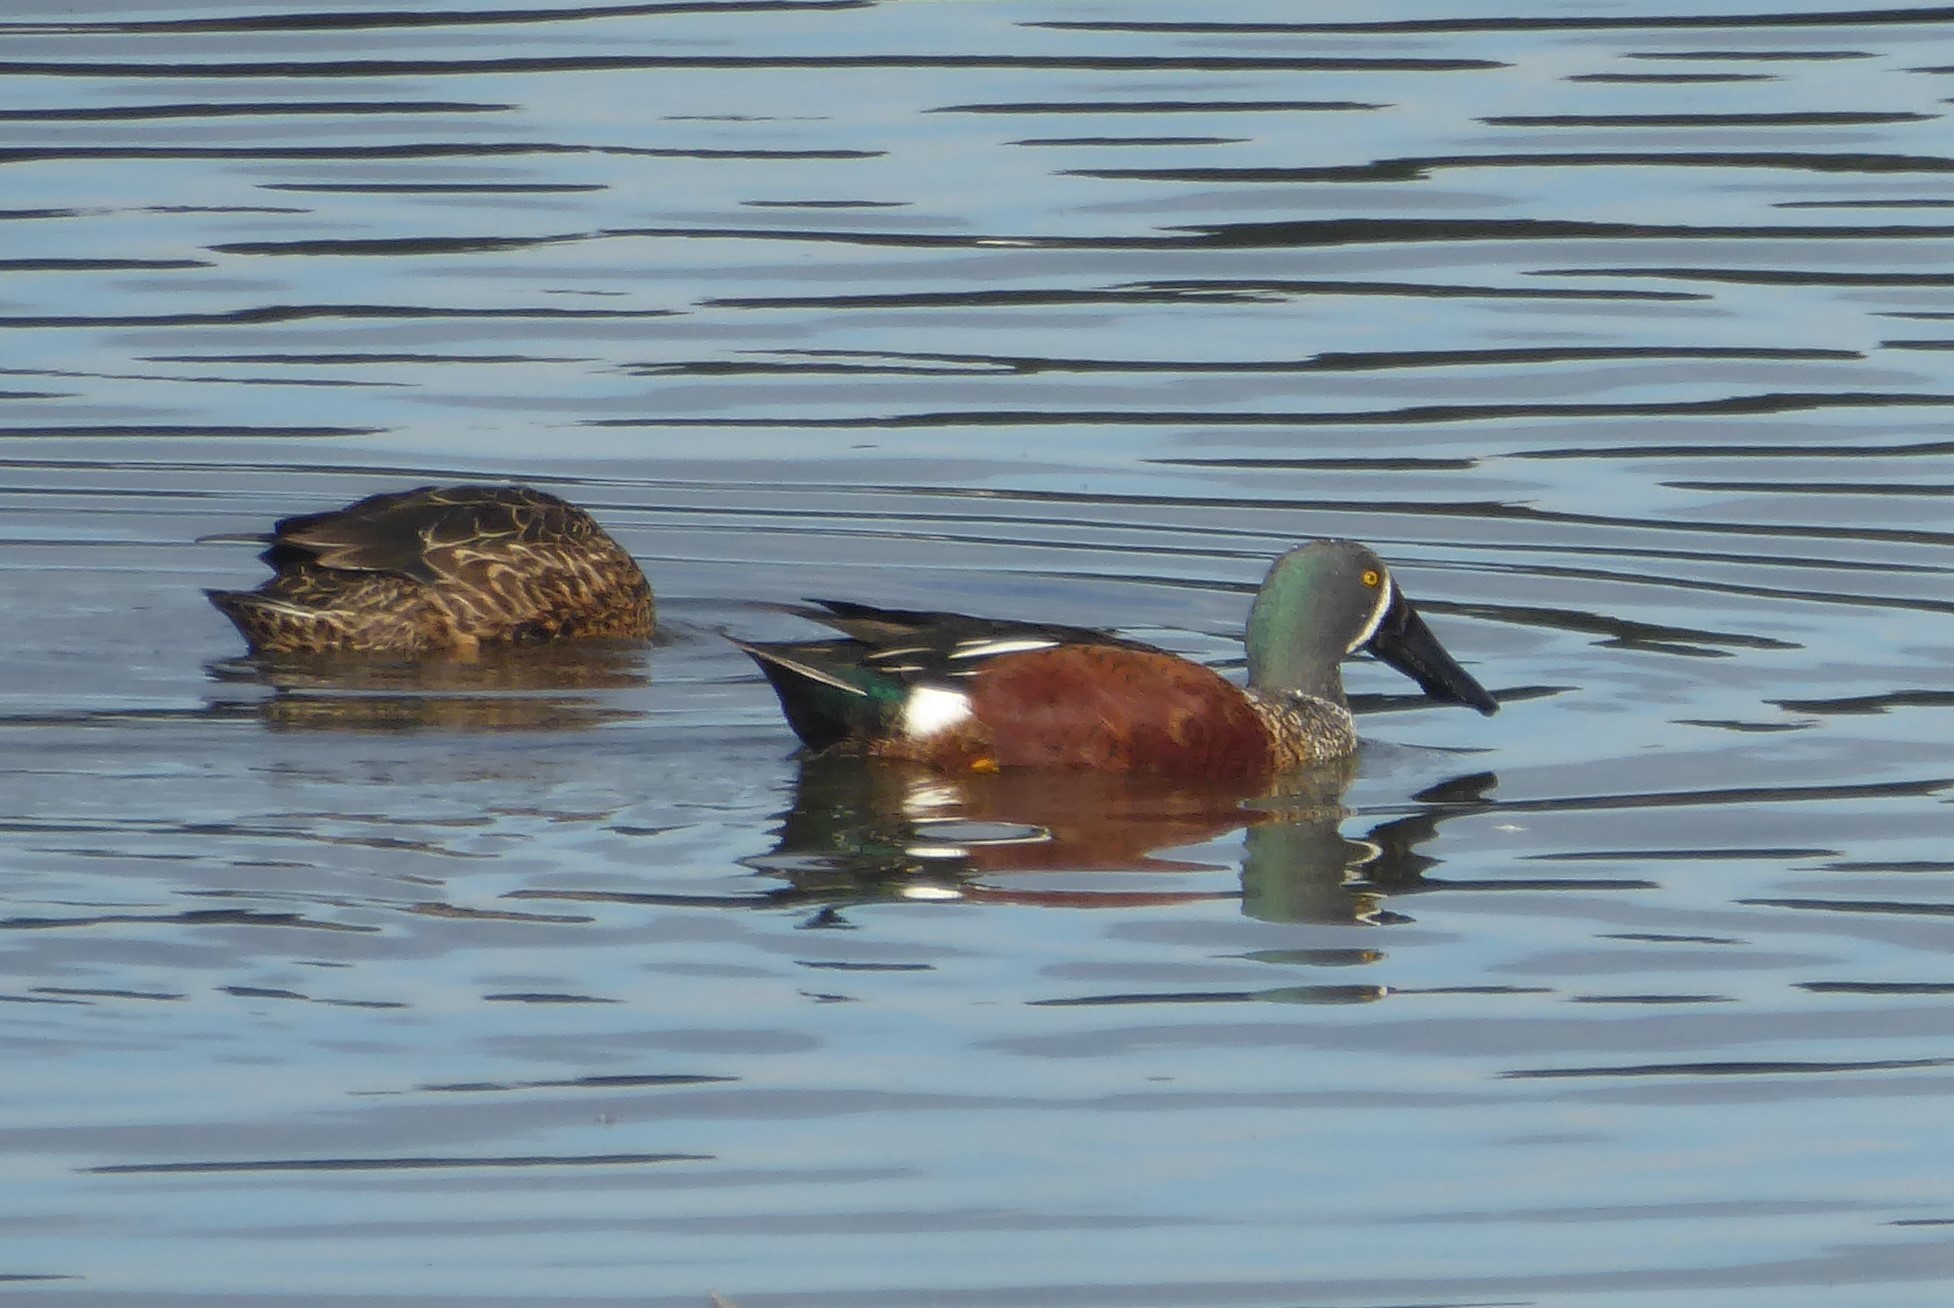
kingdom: Animalia
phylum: Chordata
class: Aves
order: Anseriformes
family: Anatidae
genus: Spatula
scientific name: Spatula rhynchotis
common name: Australian shoveler
